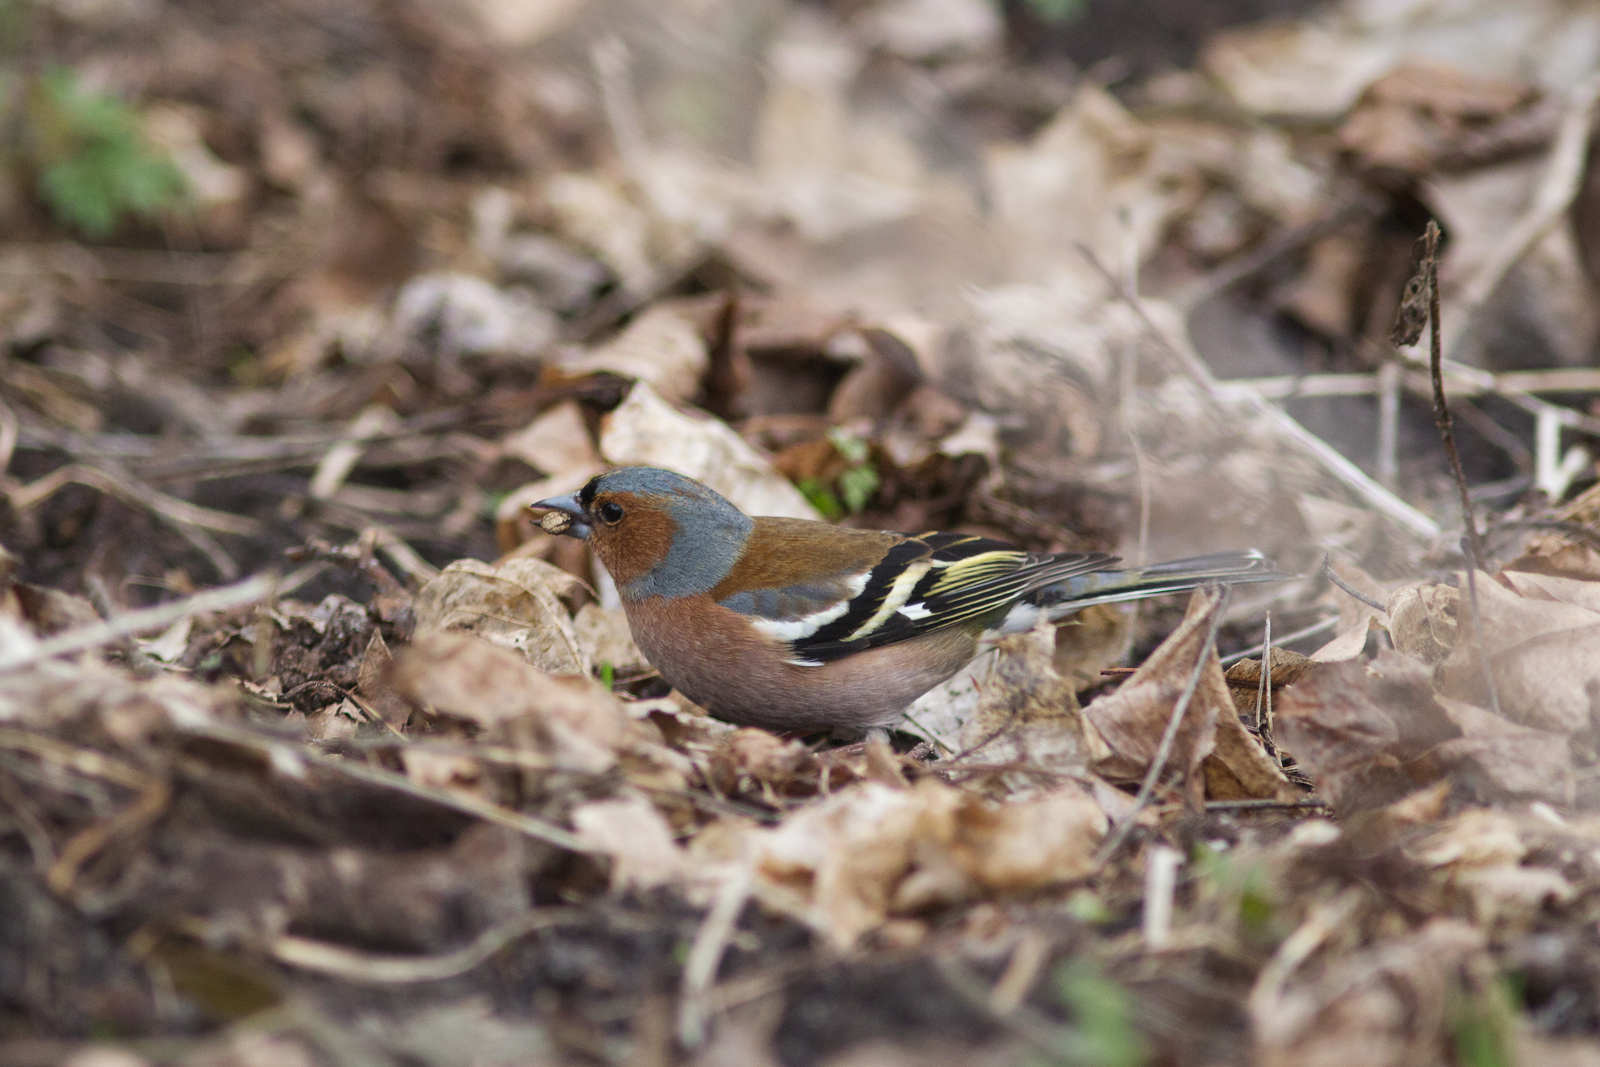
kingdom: Animalia
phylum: Chordata
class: Aves
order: Passeriformes
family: Fringillidae
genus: Fringilla
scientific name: Fringilla coelebs
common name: Common chaffinch
